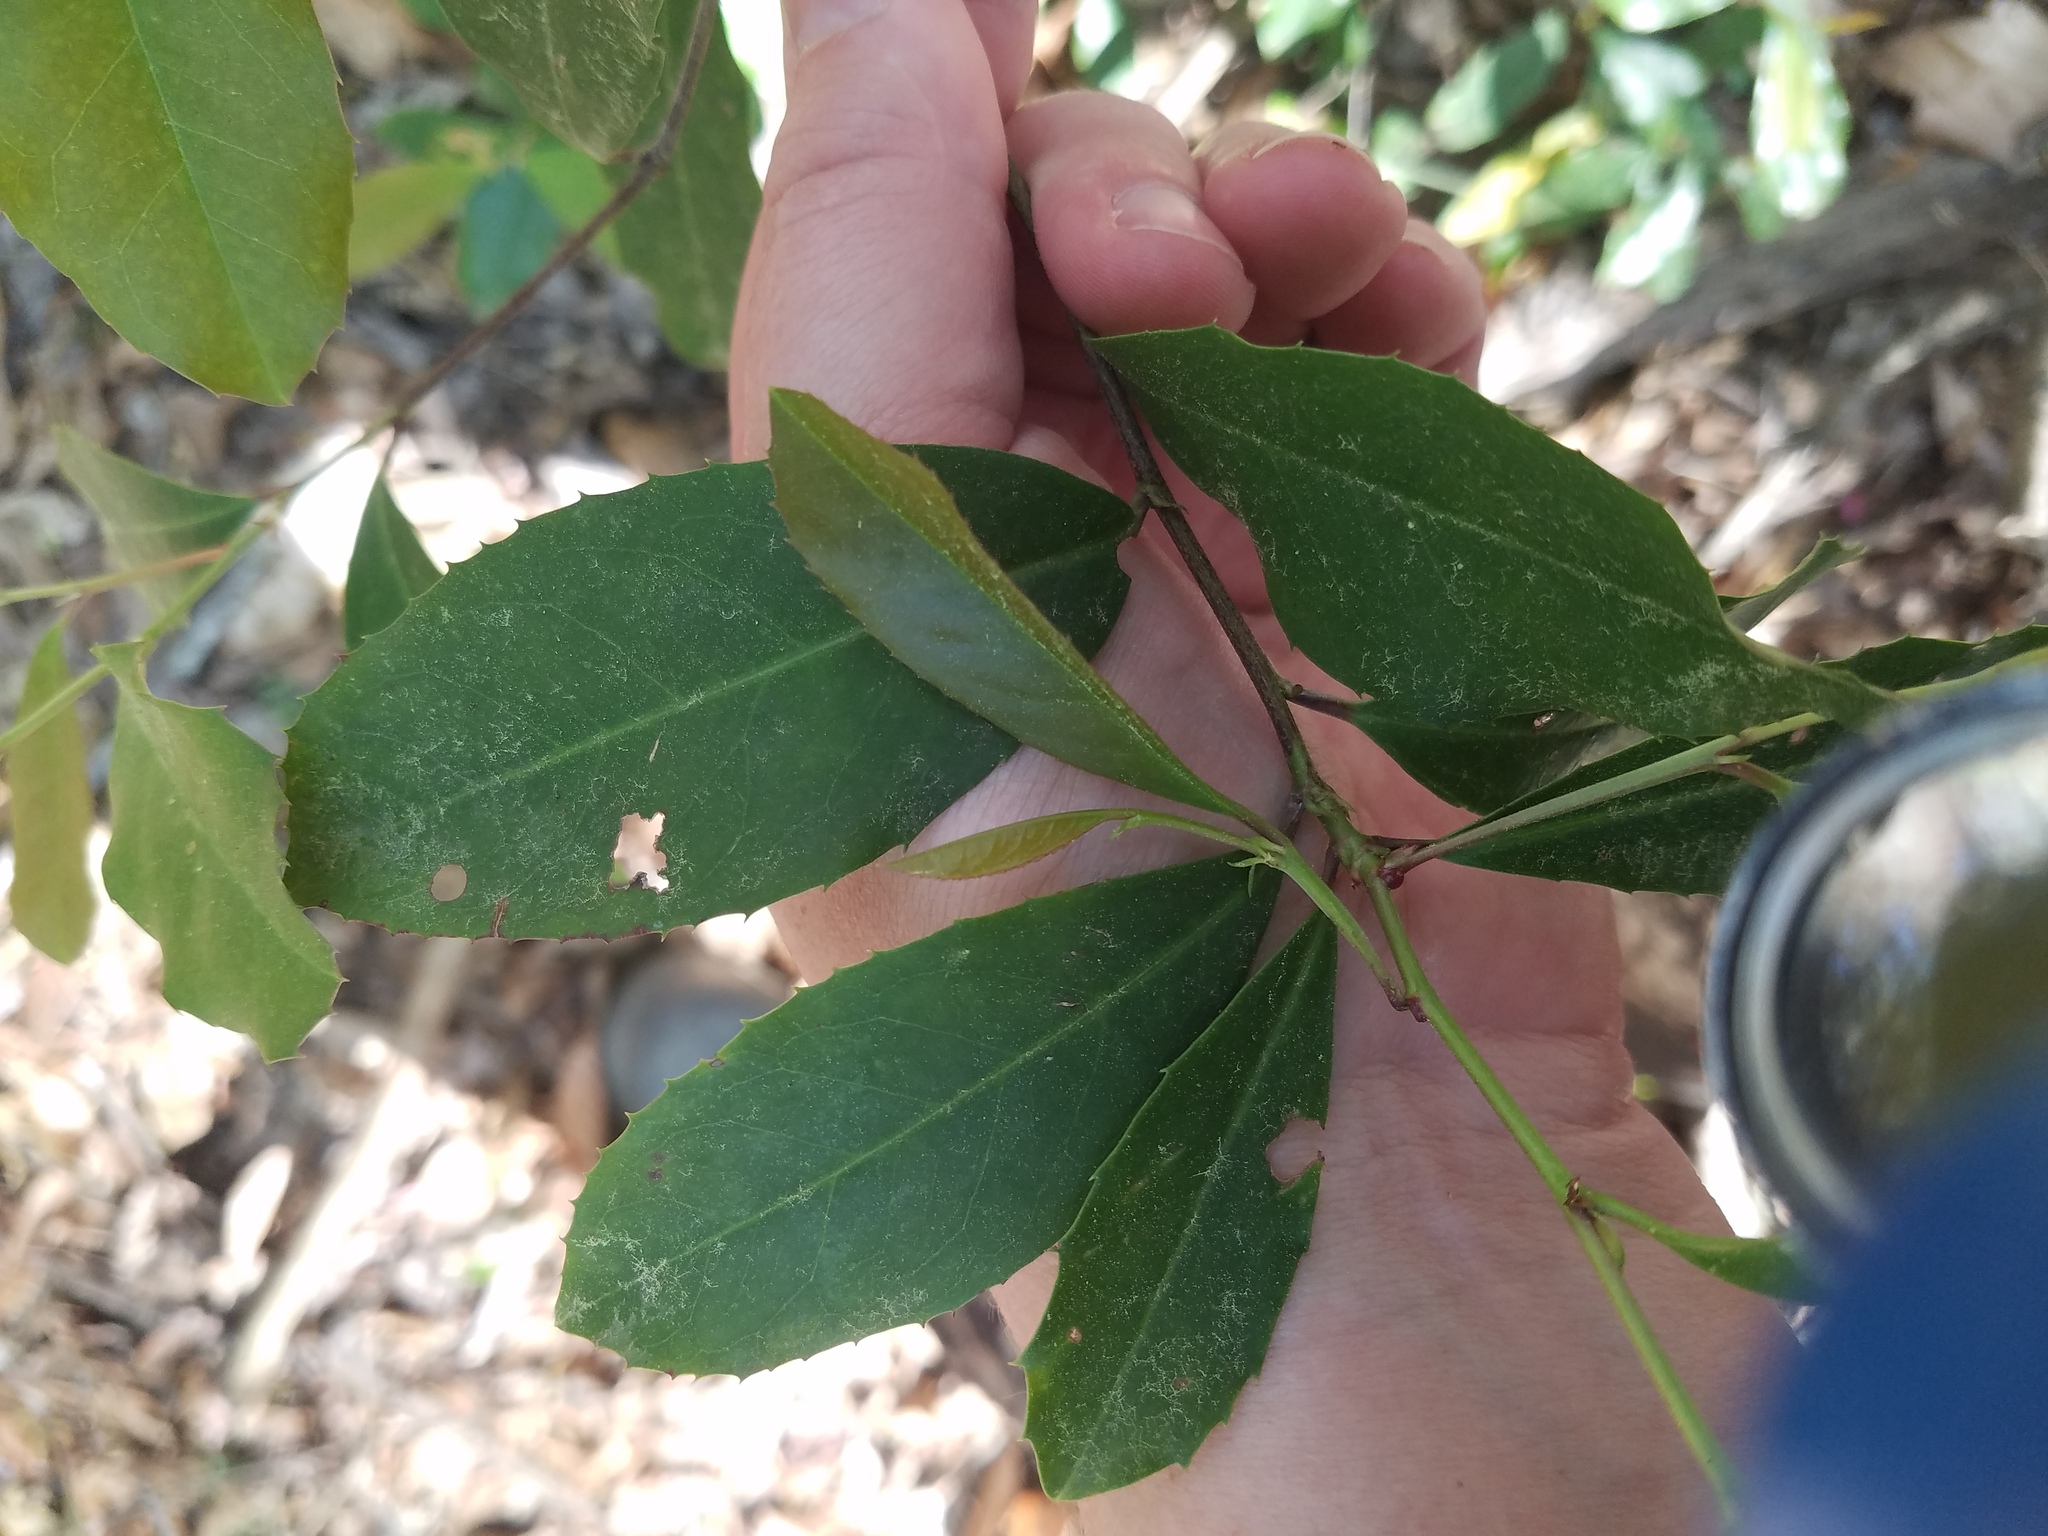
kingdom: Plantae
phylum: Tracheophyta
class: Magnoliopsida
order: Rosales
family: Rosaceae
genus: Prunus
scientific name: Prunus caroliniana
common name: Carolina laurel cherry
